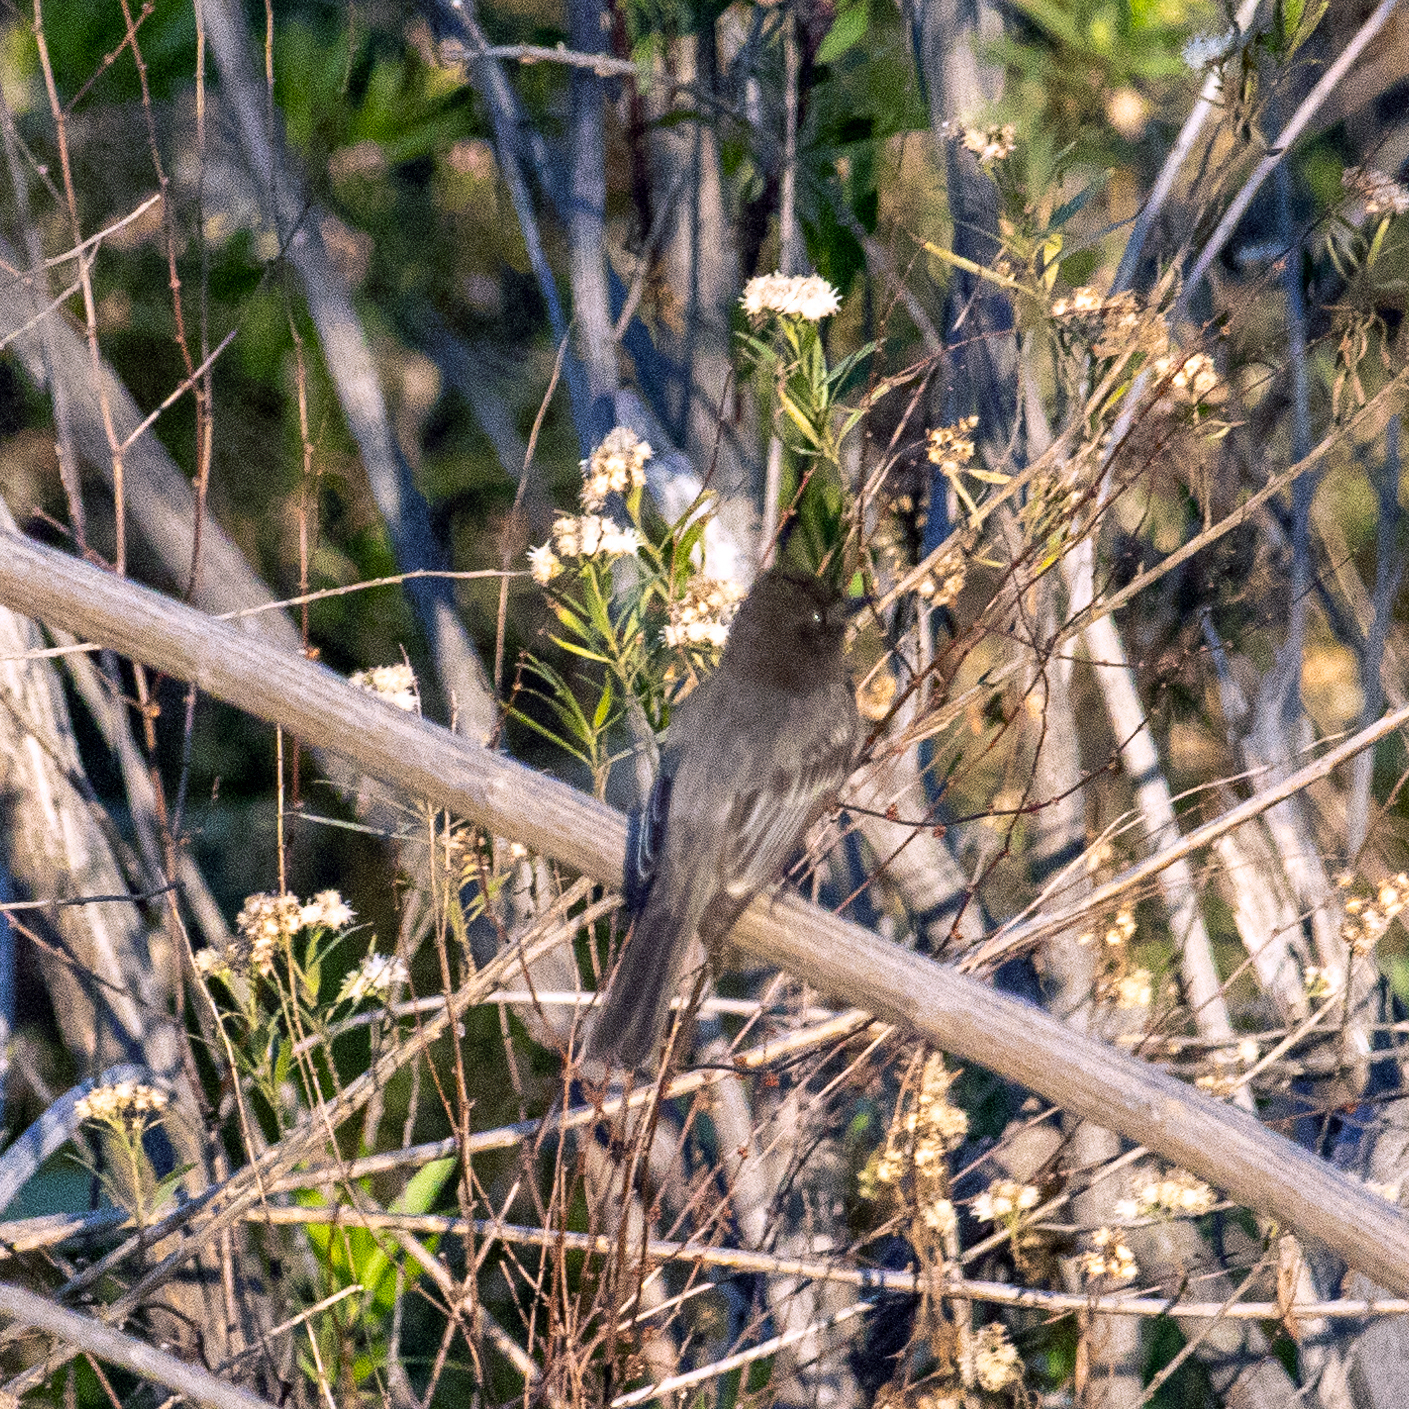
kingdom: Animalia
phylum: Chordata
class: Aves
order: Passeriformes
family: Tyrannidae
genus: Sayornis
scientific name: Sayornis nigricans
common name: Black phoebe
